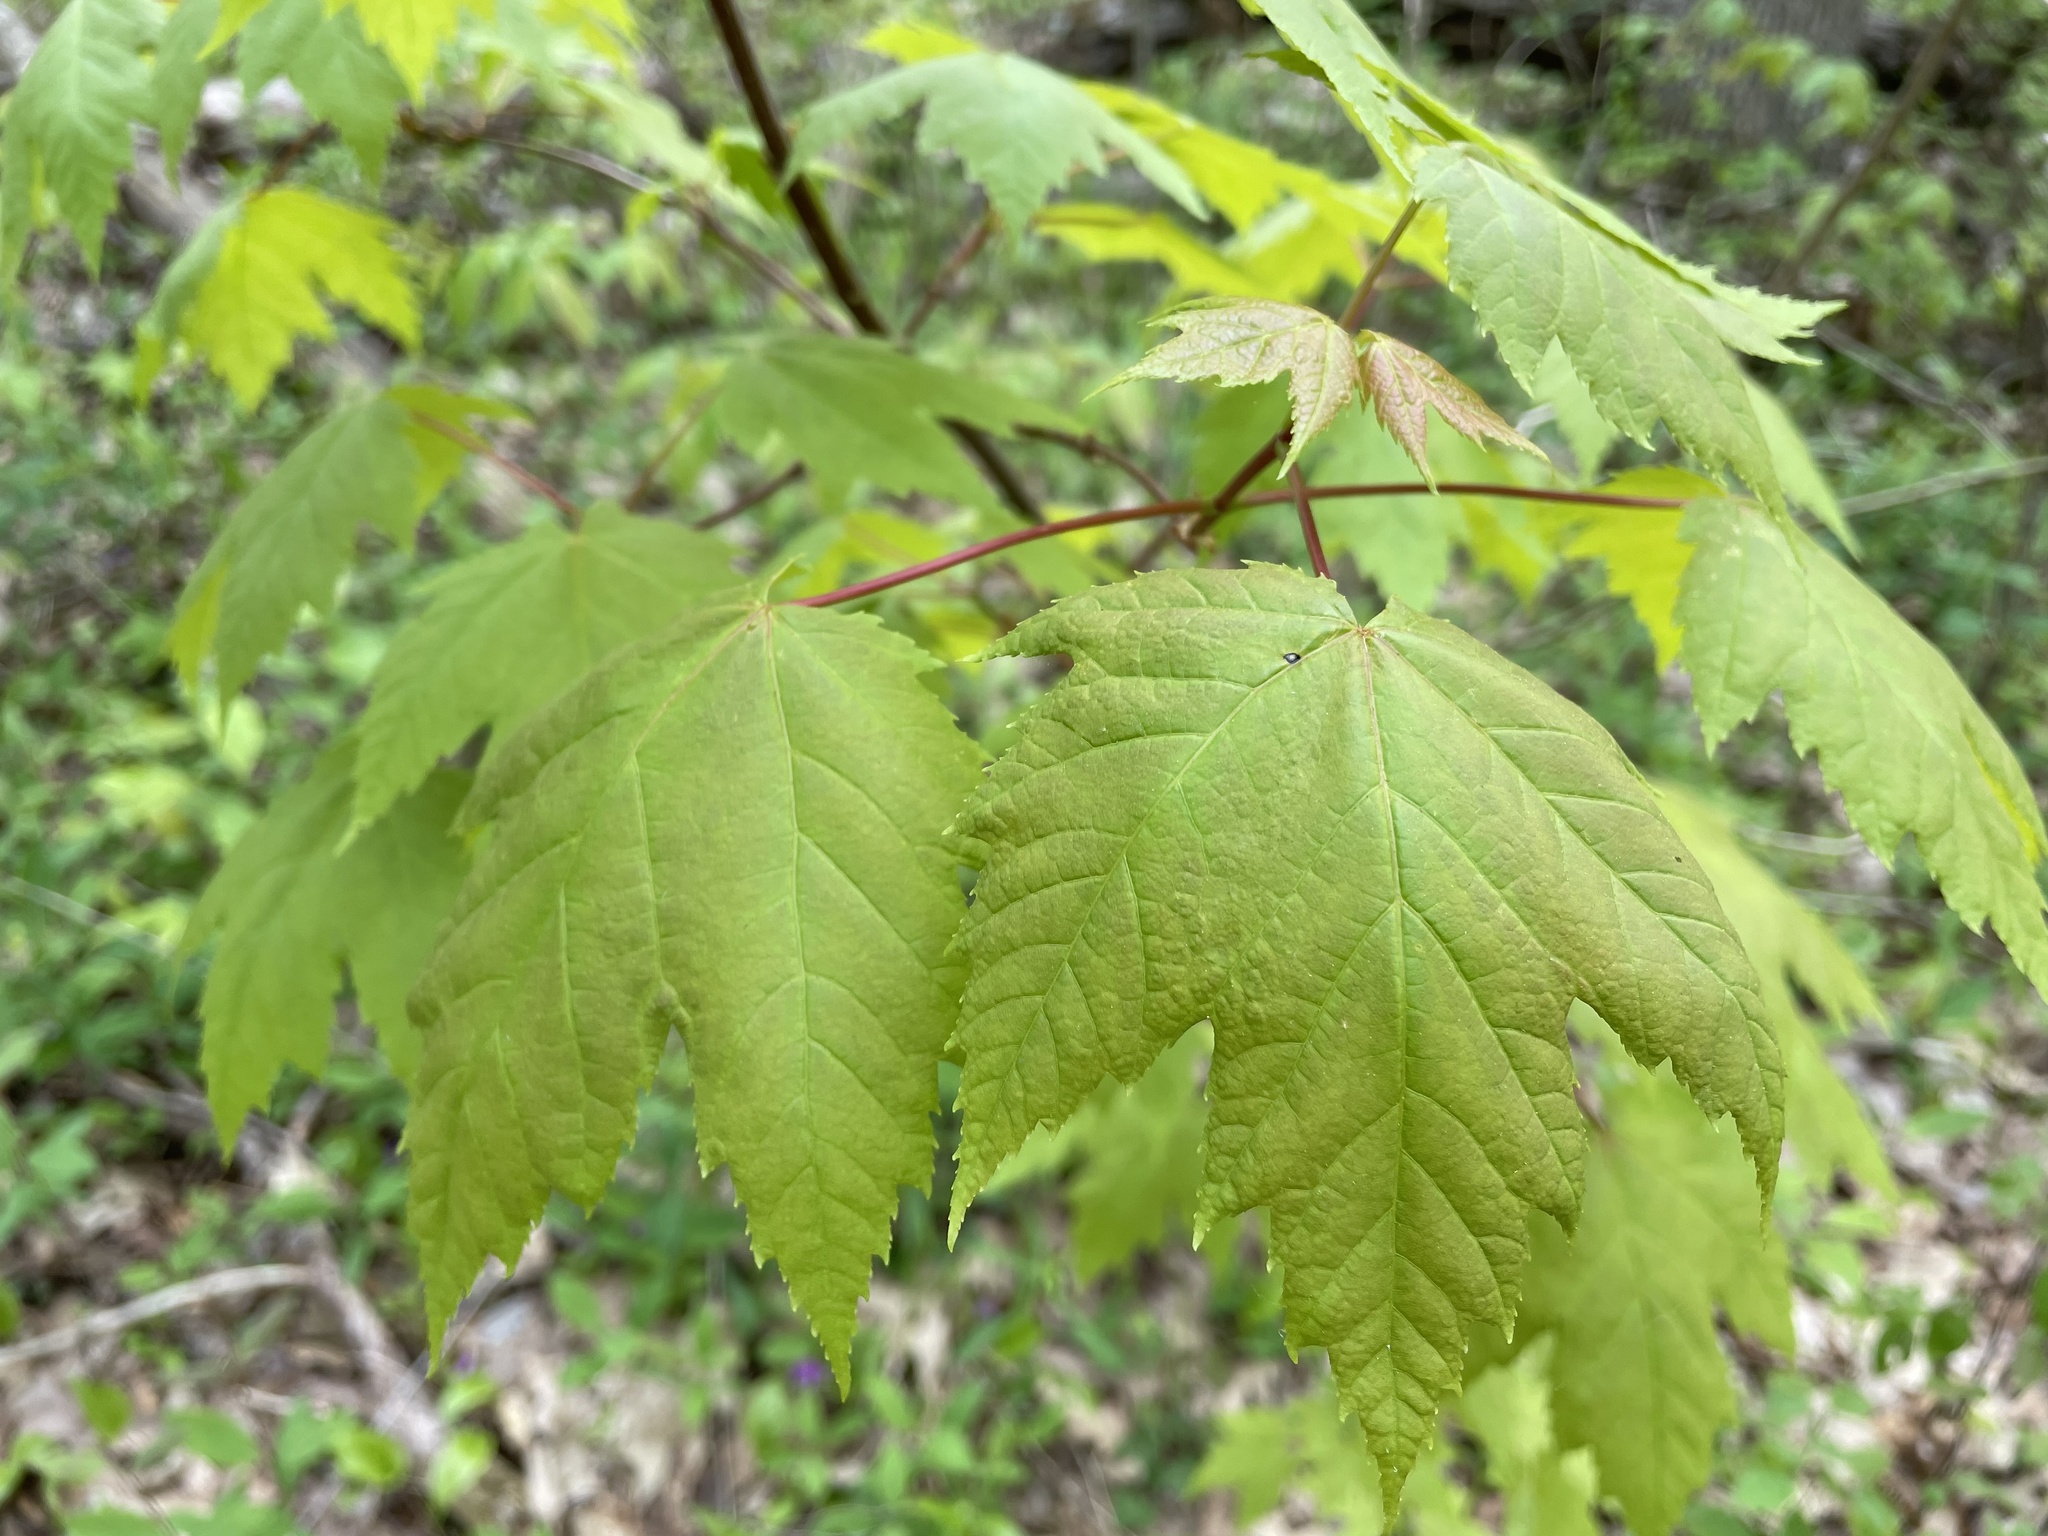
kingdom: Plantae
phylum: Tracheophyta
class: Magnoliopsida
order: Sapindales
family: Sapindaceae
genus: Acer
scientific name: Acer rubrum
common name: Red maple
